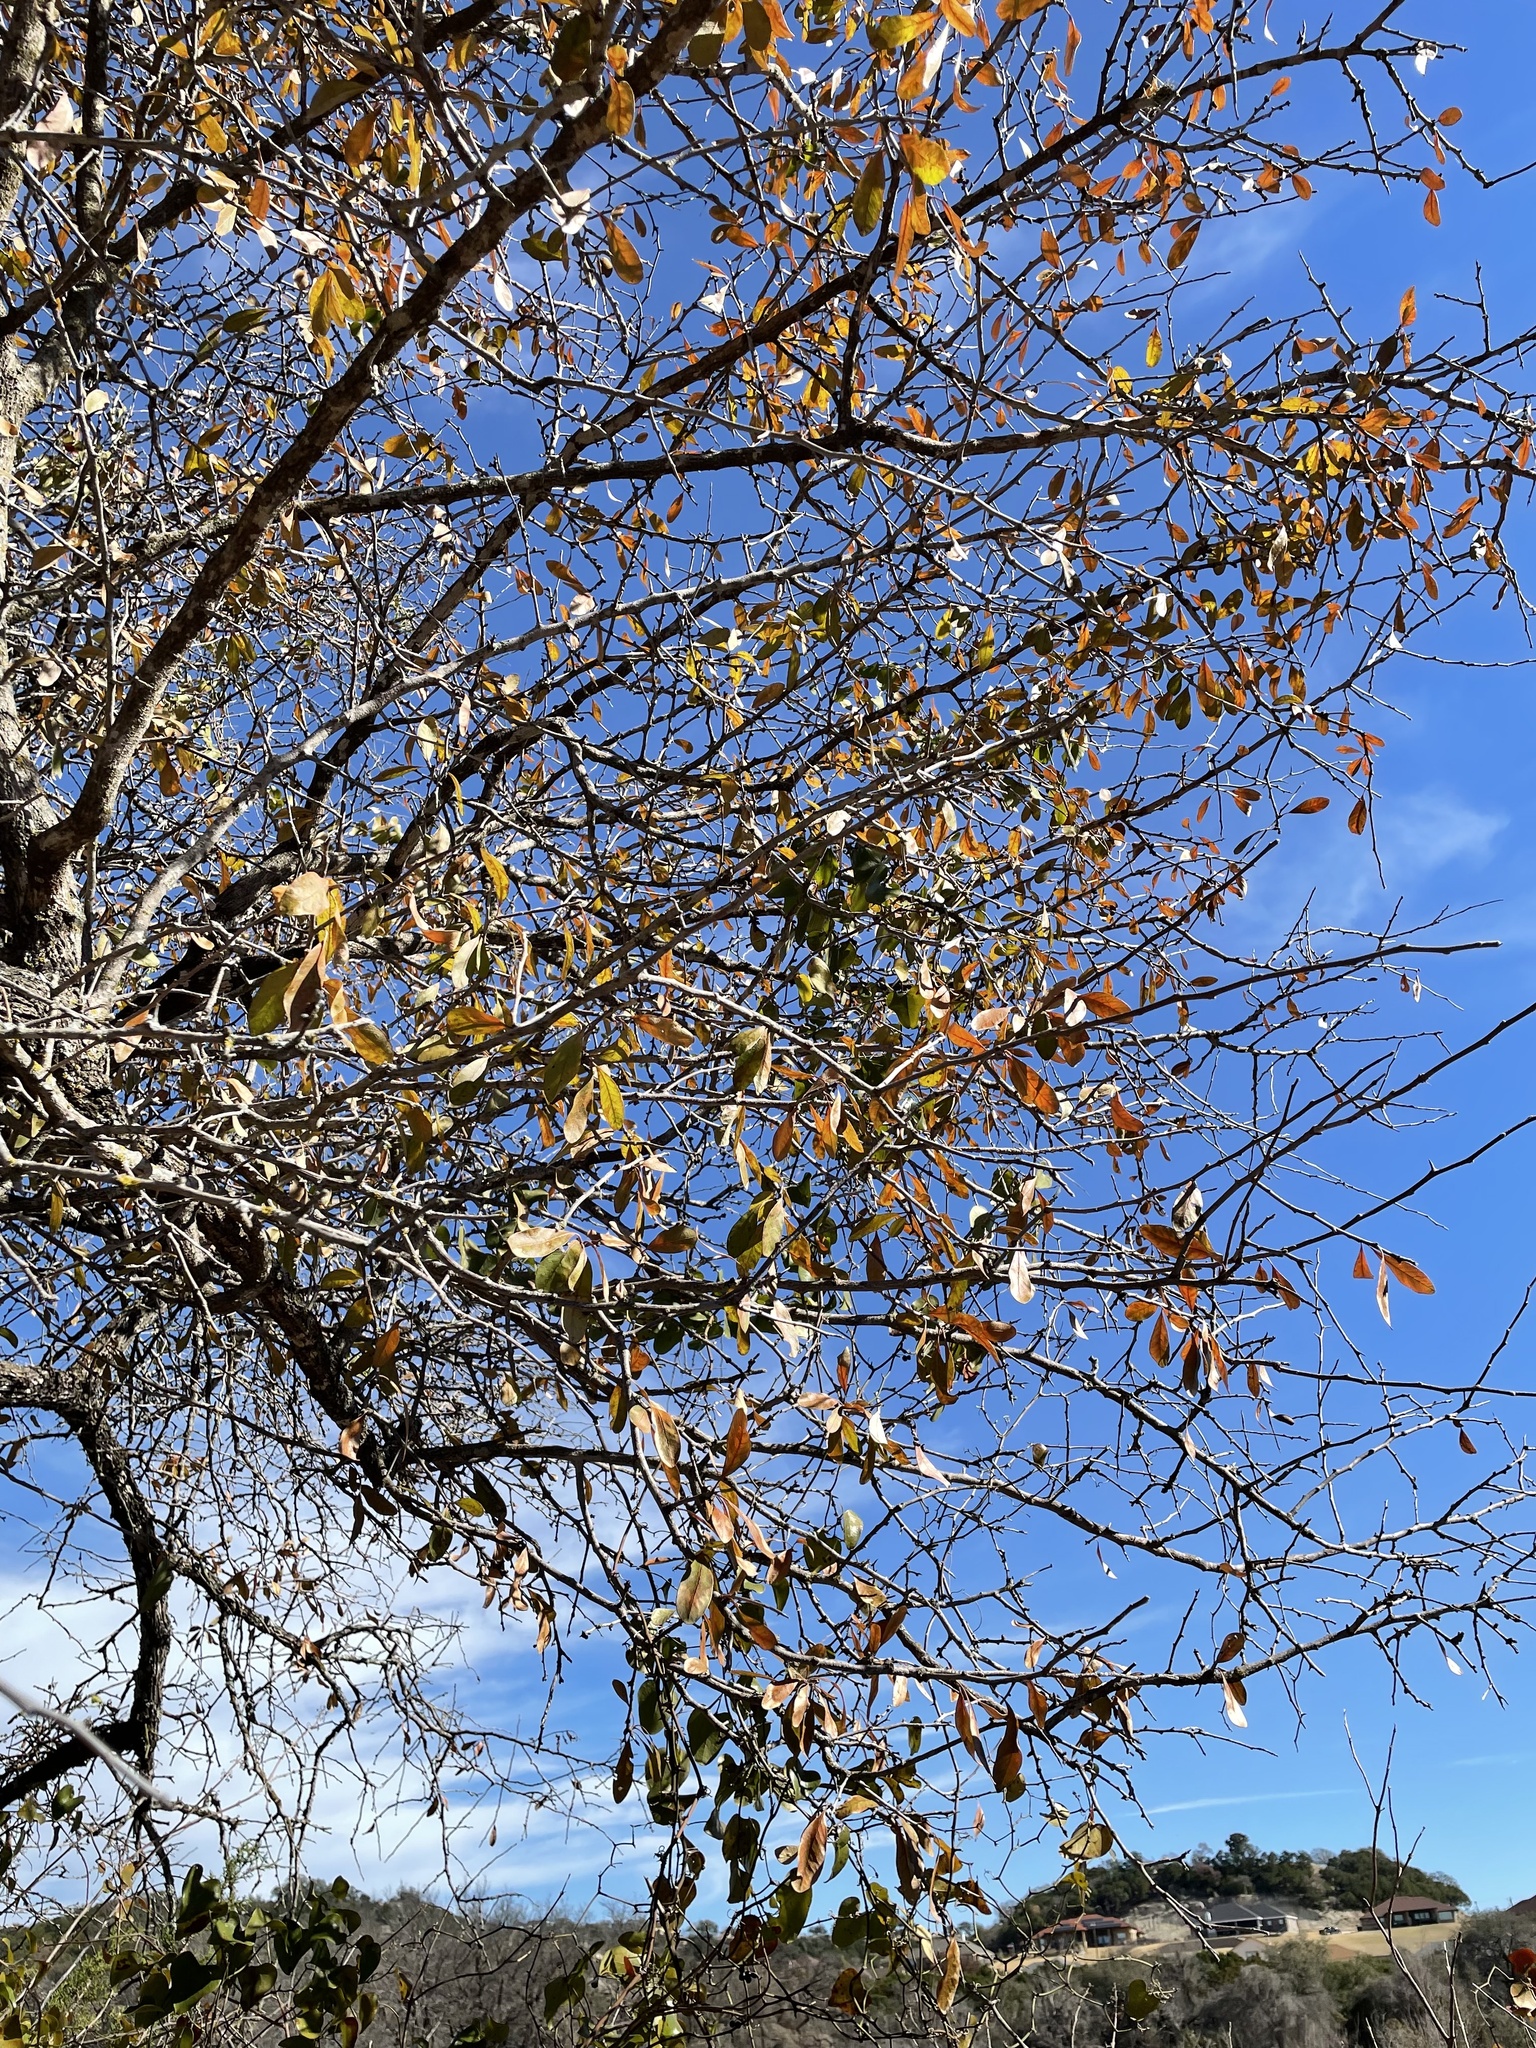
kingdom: Plantae
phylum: Tracheophyta
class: Magnoliopsida
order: Ericales
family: Sapotaceae
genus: Sideroxylon
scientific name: Sideroxylon lanuginosum
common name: Chittamwood
